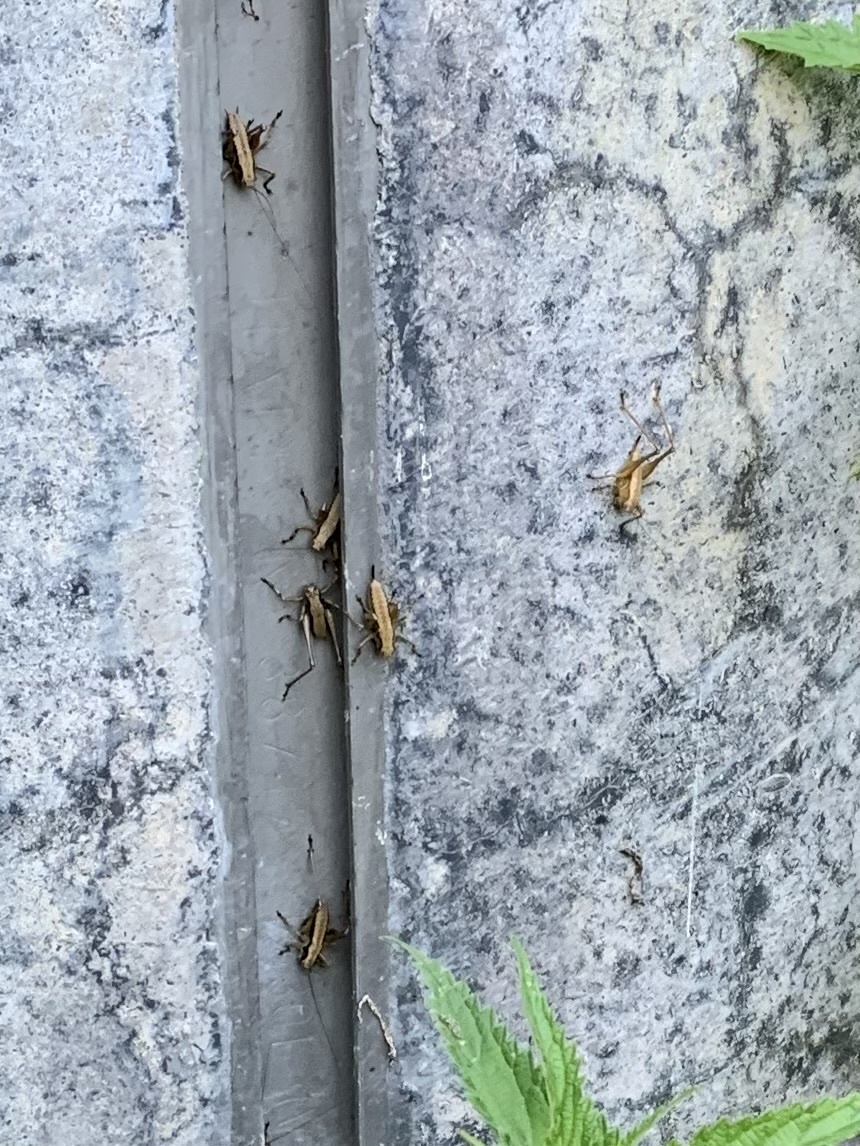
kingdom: Animalia
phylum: Arthropoda
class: Insecta
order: Orthoptera
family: Tettigoniidae
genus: Pholidoptera
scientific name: Pholidoptera griseoaptera
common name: Dark bush-cricket
